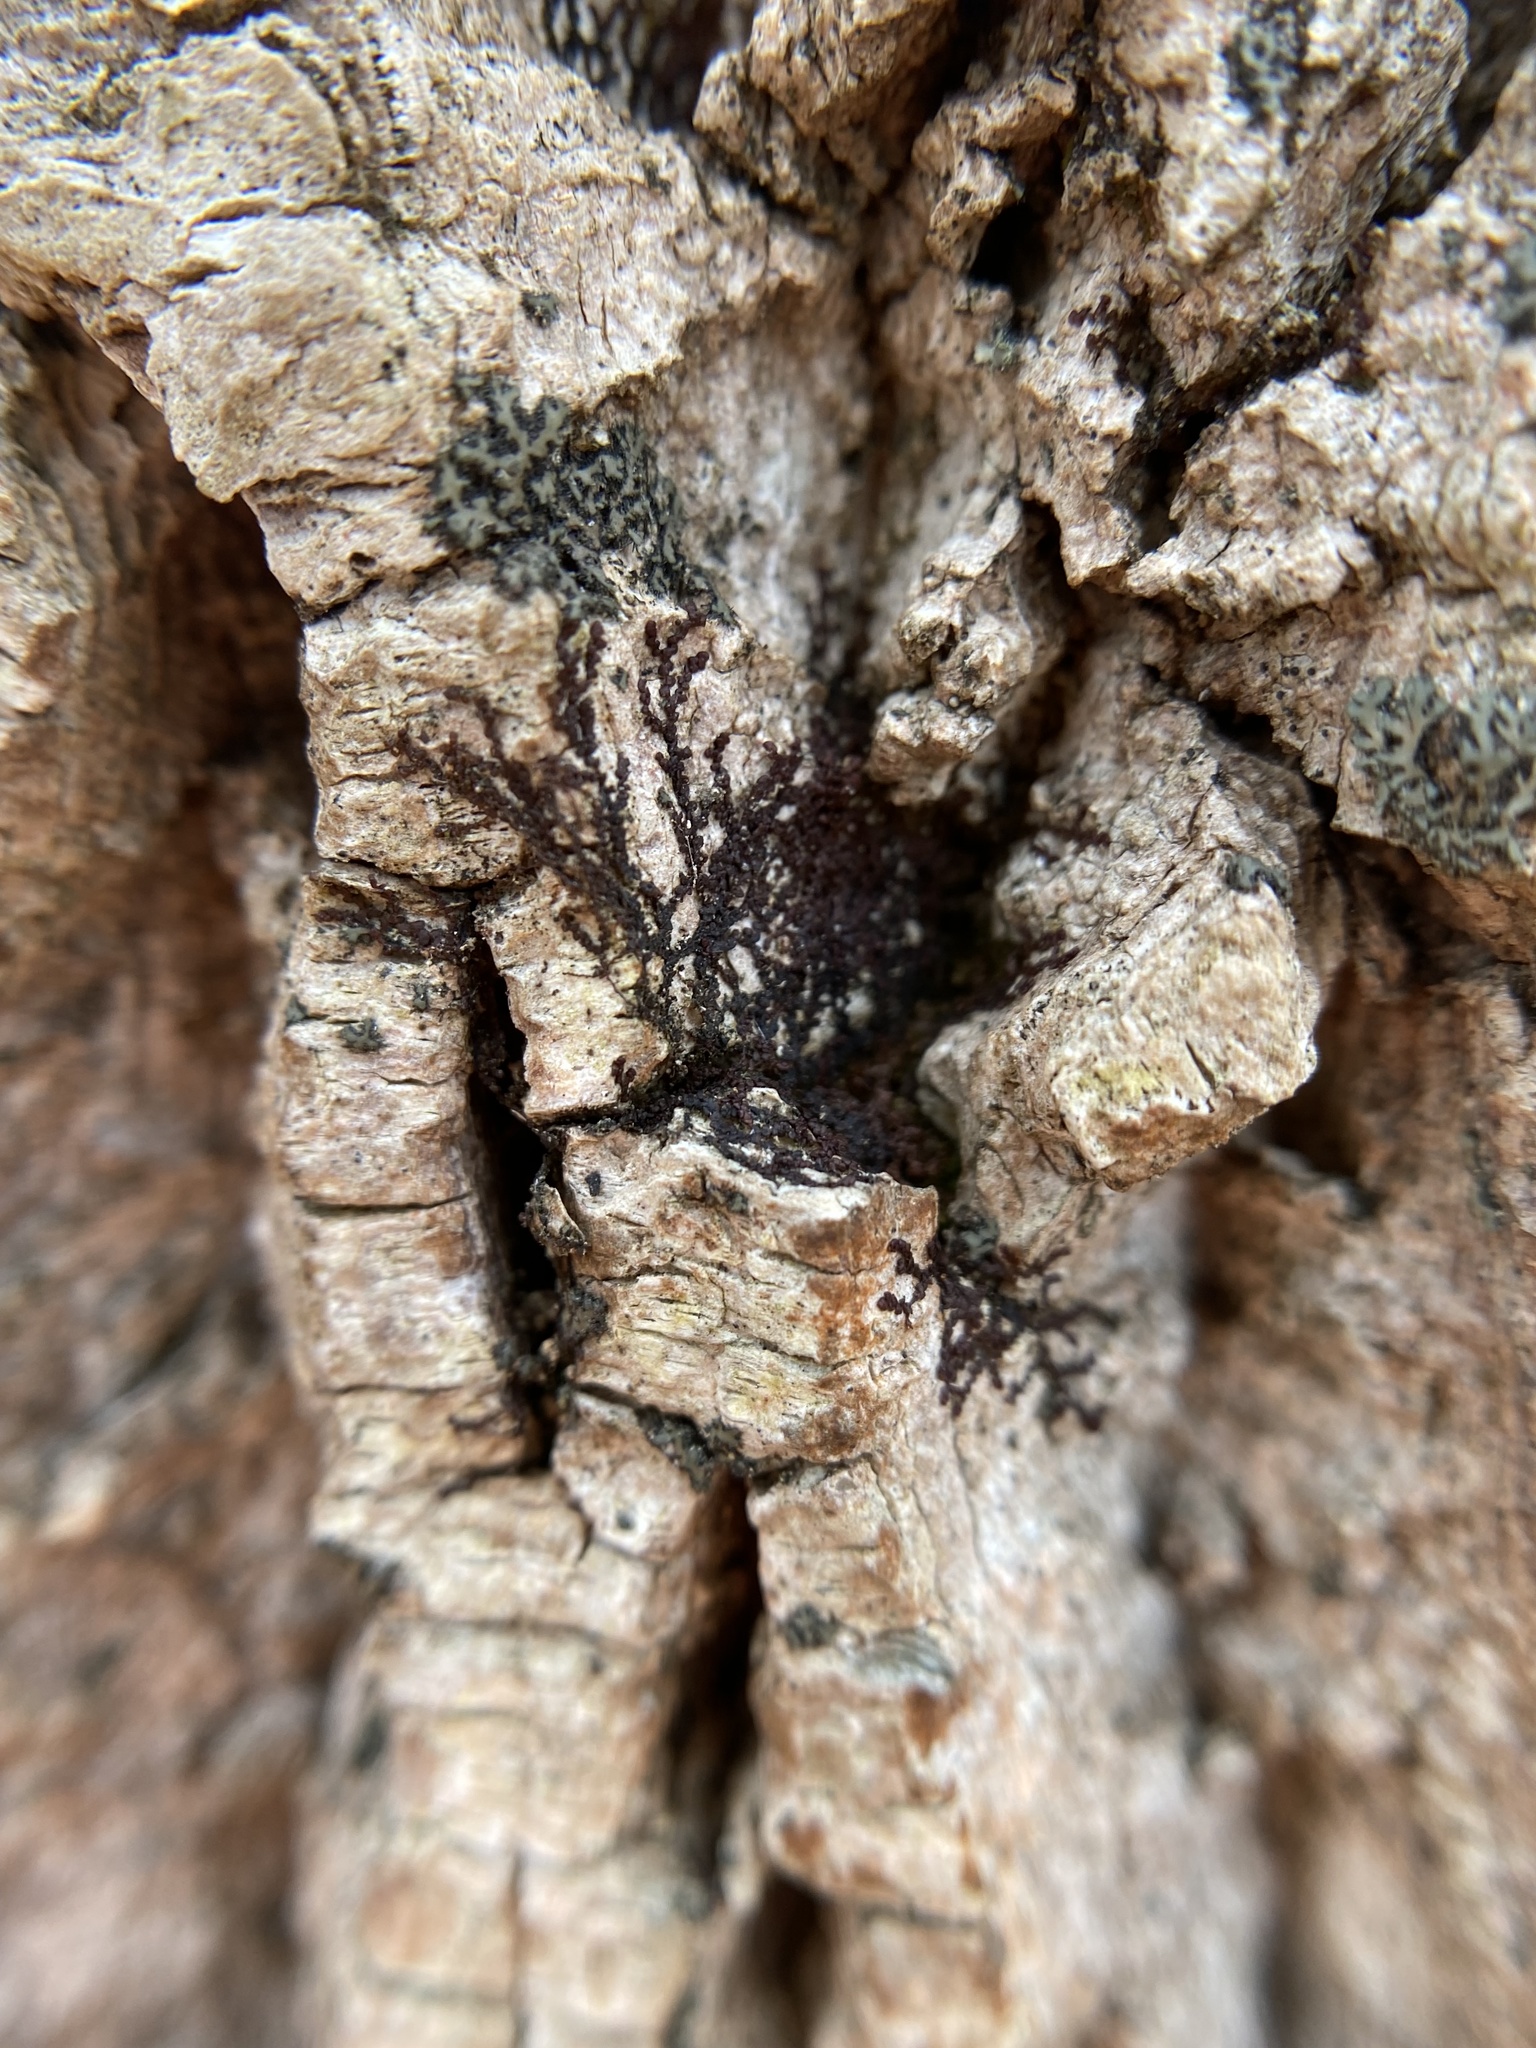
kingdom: Plantae
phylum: Marchantiophyta
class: Jungermanniopsida
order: Porellales
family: Frullaniaceae
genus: Frullania
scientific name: Frullania eboracensis
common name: New york scalewort
